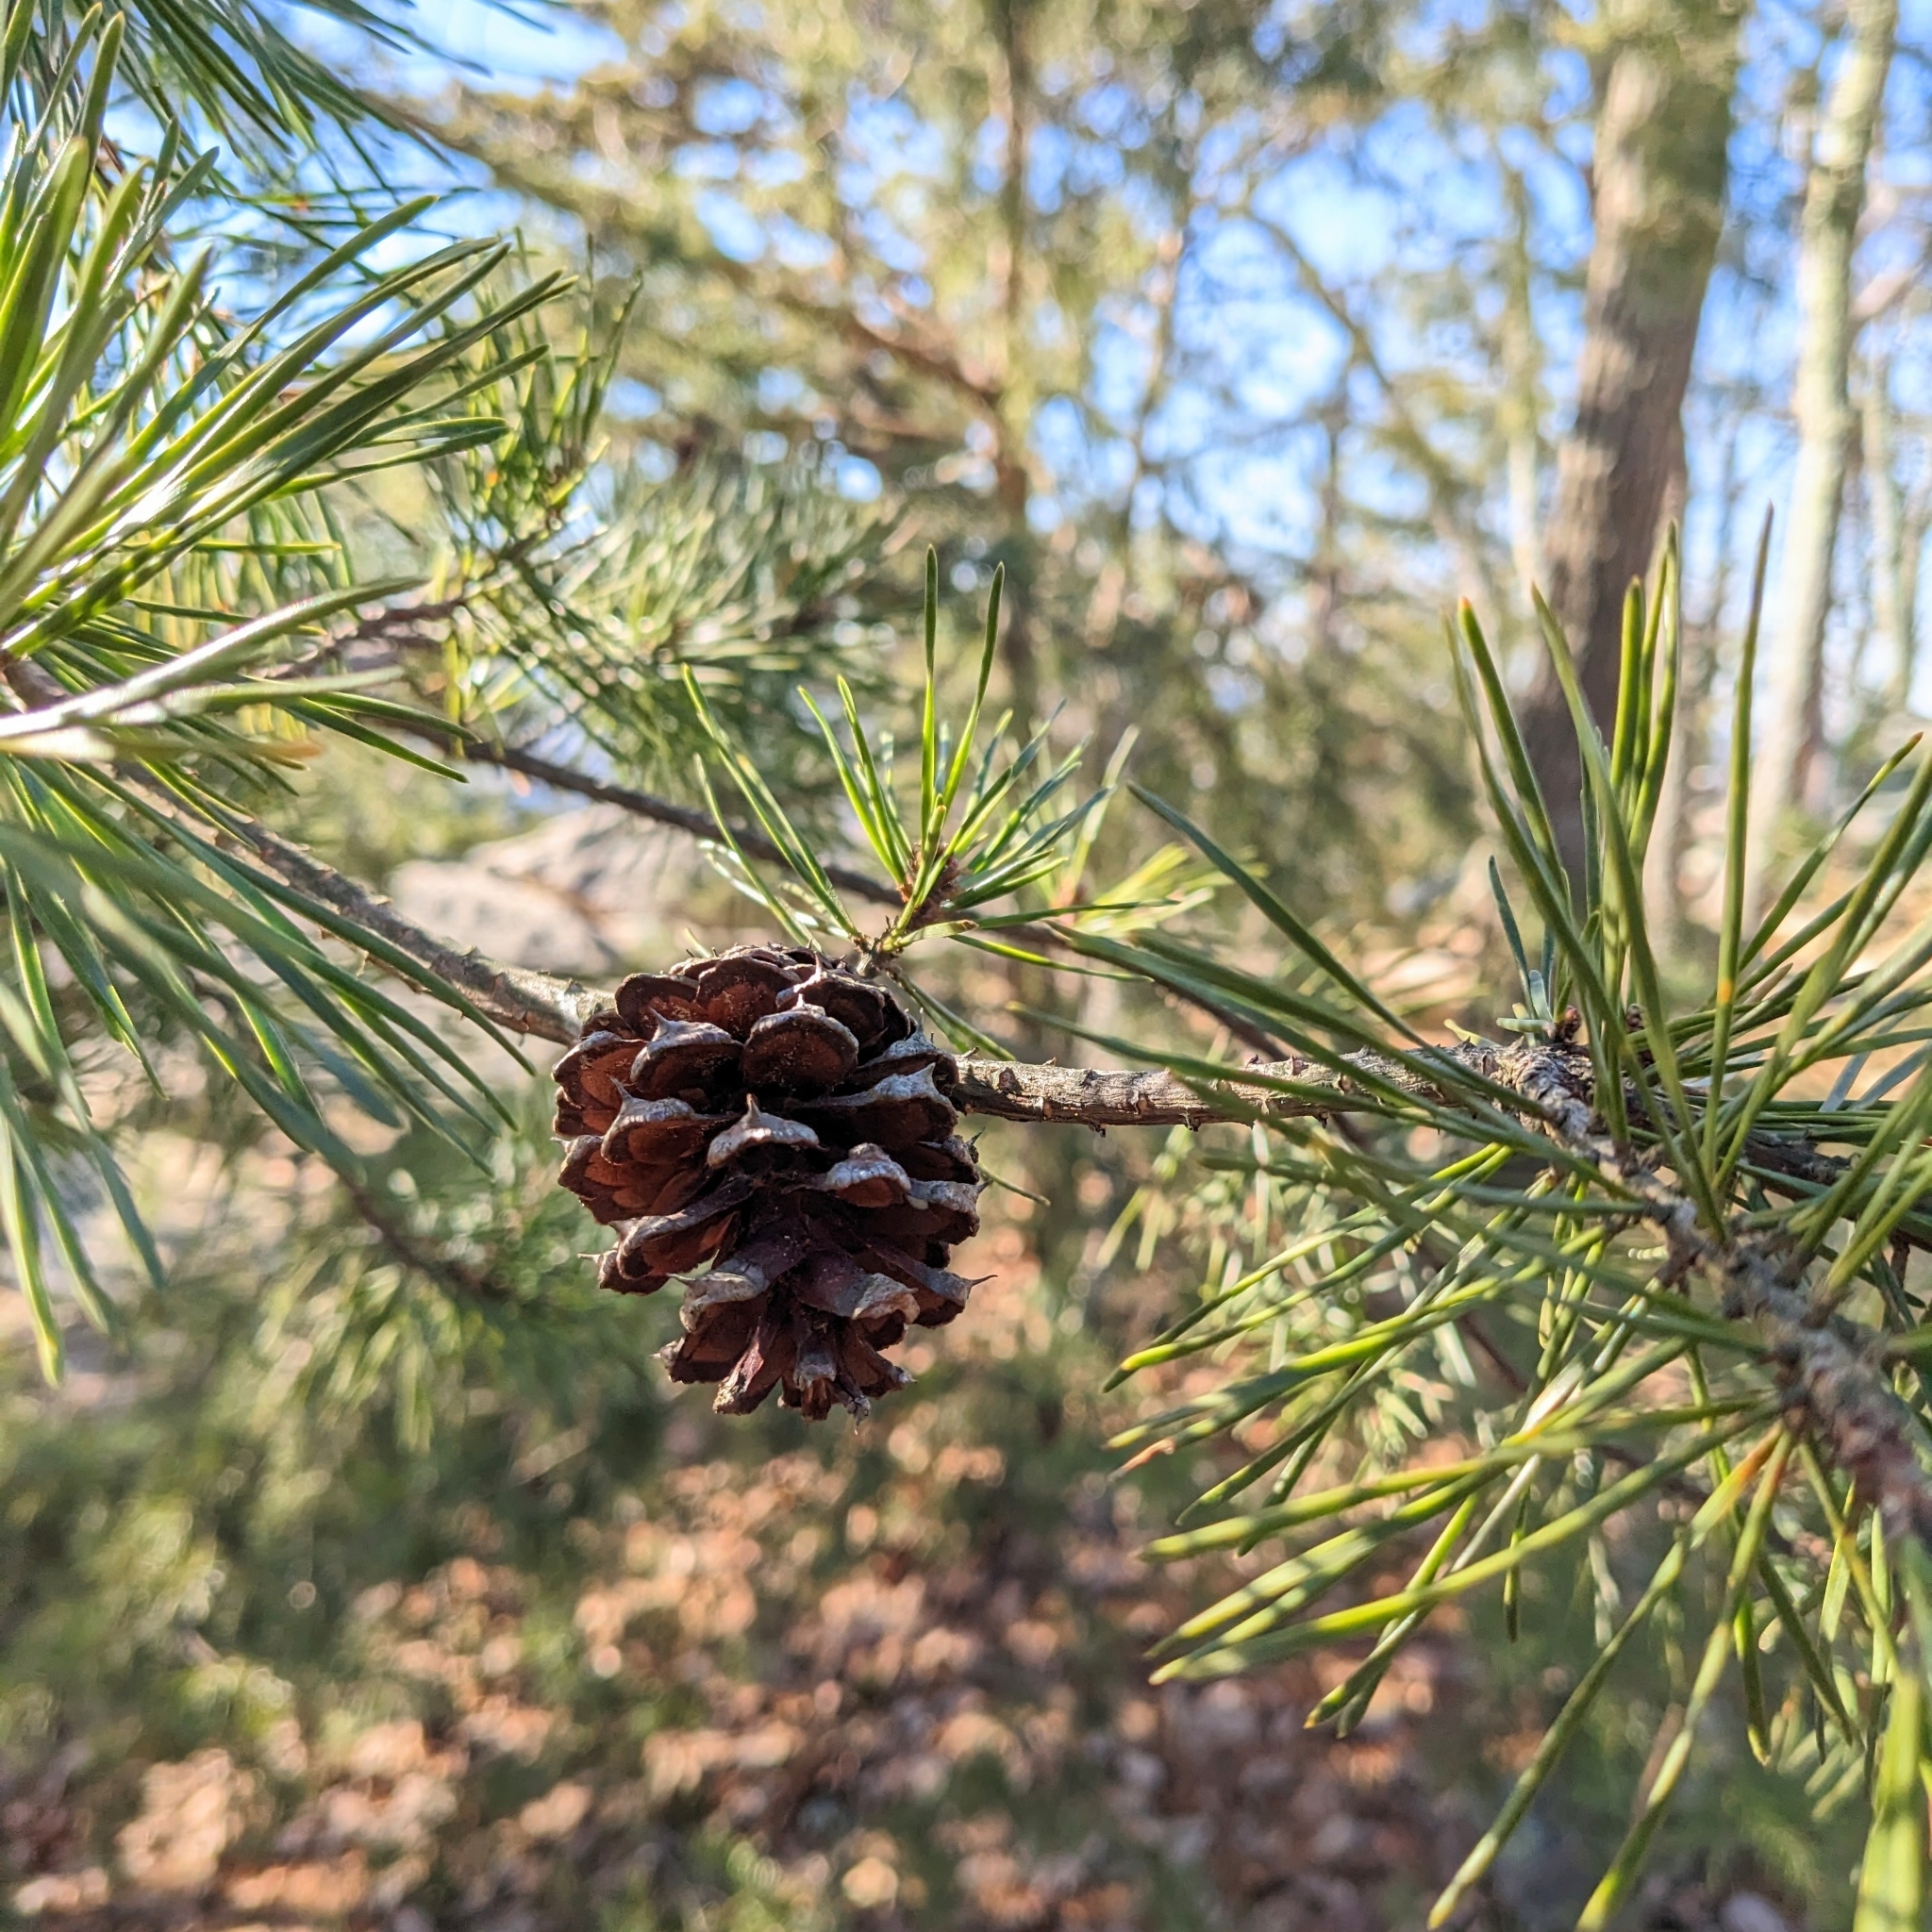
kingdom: Plantae
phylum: Tracheophyta
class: Pinopsida
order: Pinales
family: Pinaceae
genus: Pinus
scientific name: Pinus virginiana
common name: Scrub pine
